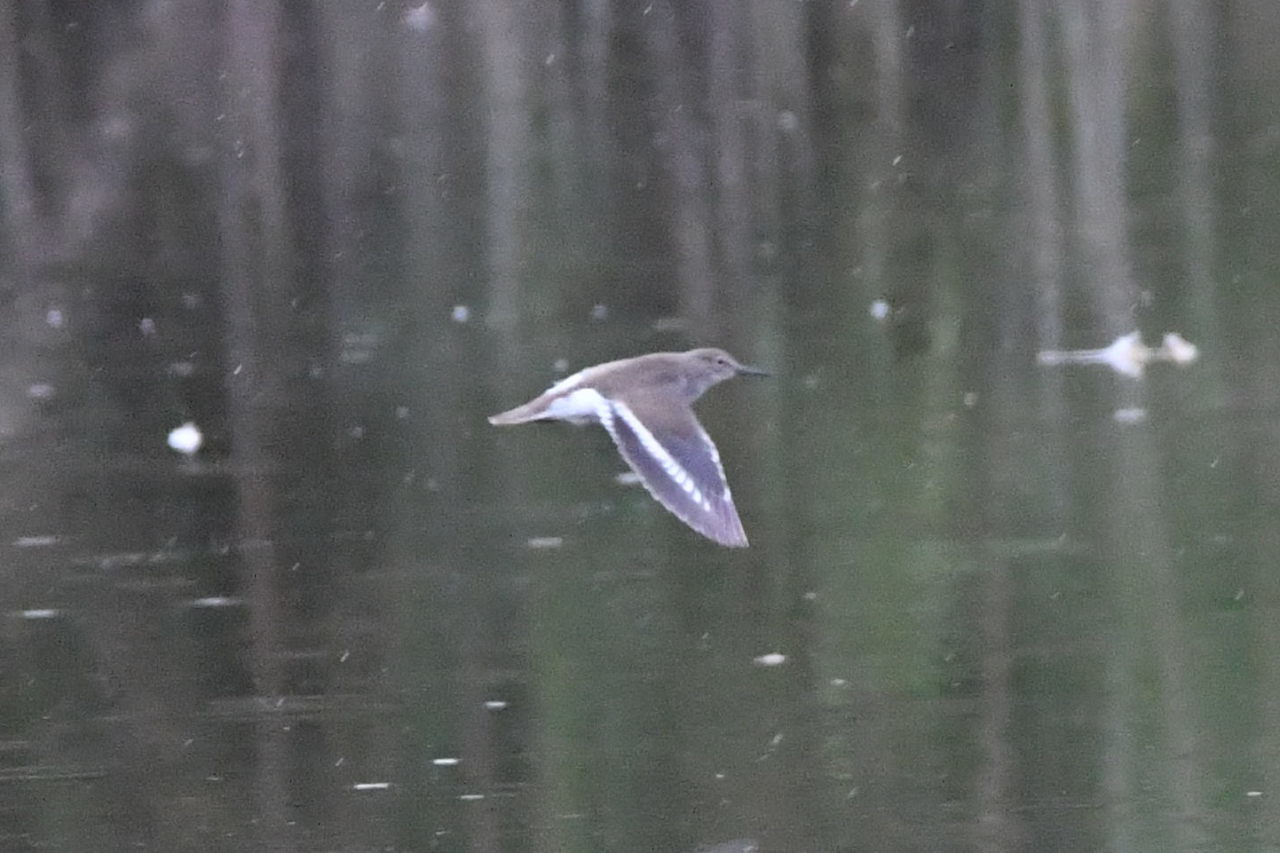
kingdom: Animalia
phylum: Chordata
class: Aves
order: Charadriiformes
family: Scolopacidae
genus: Actitis
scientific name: Actitis hypoleucos
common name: Common sandpiper
